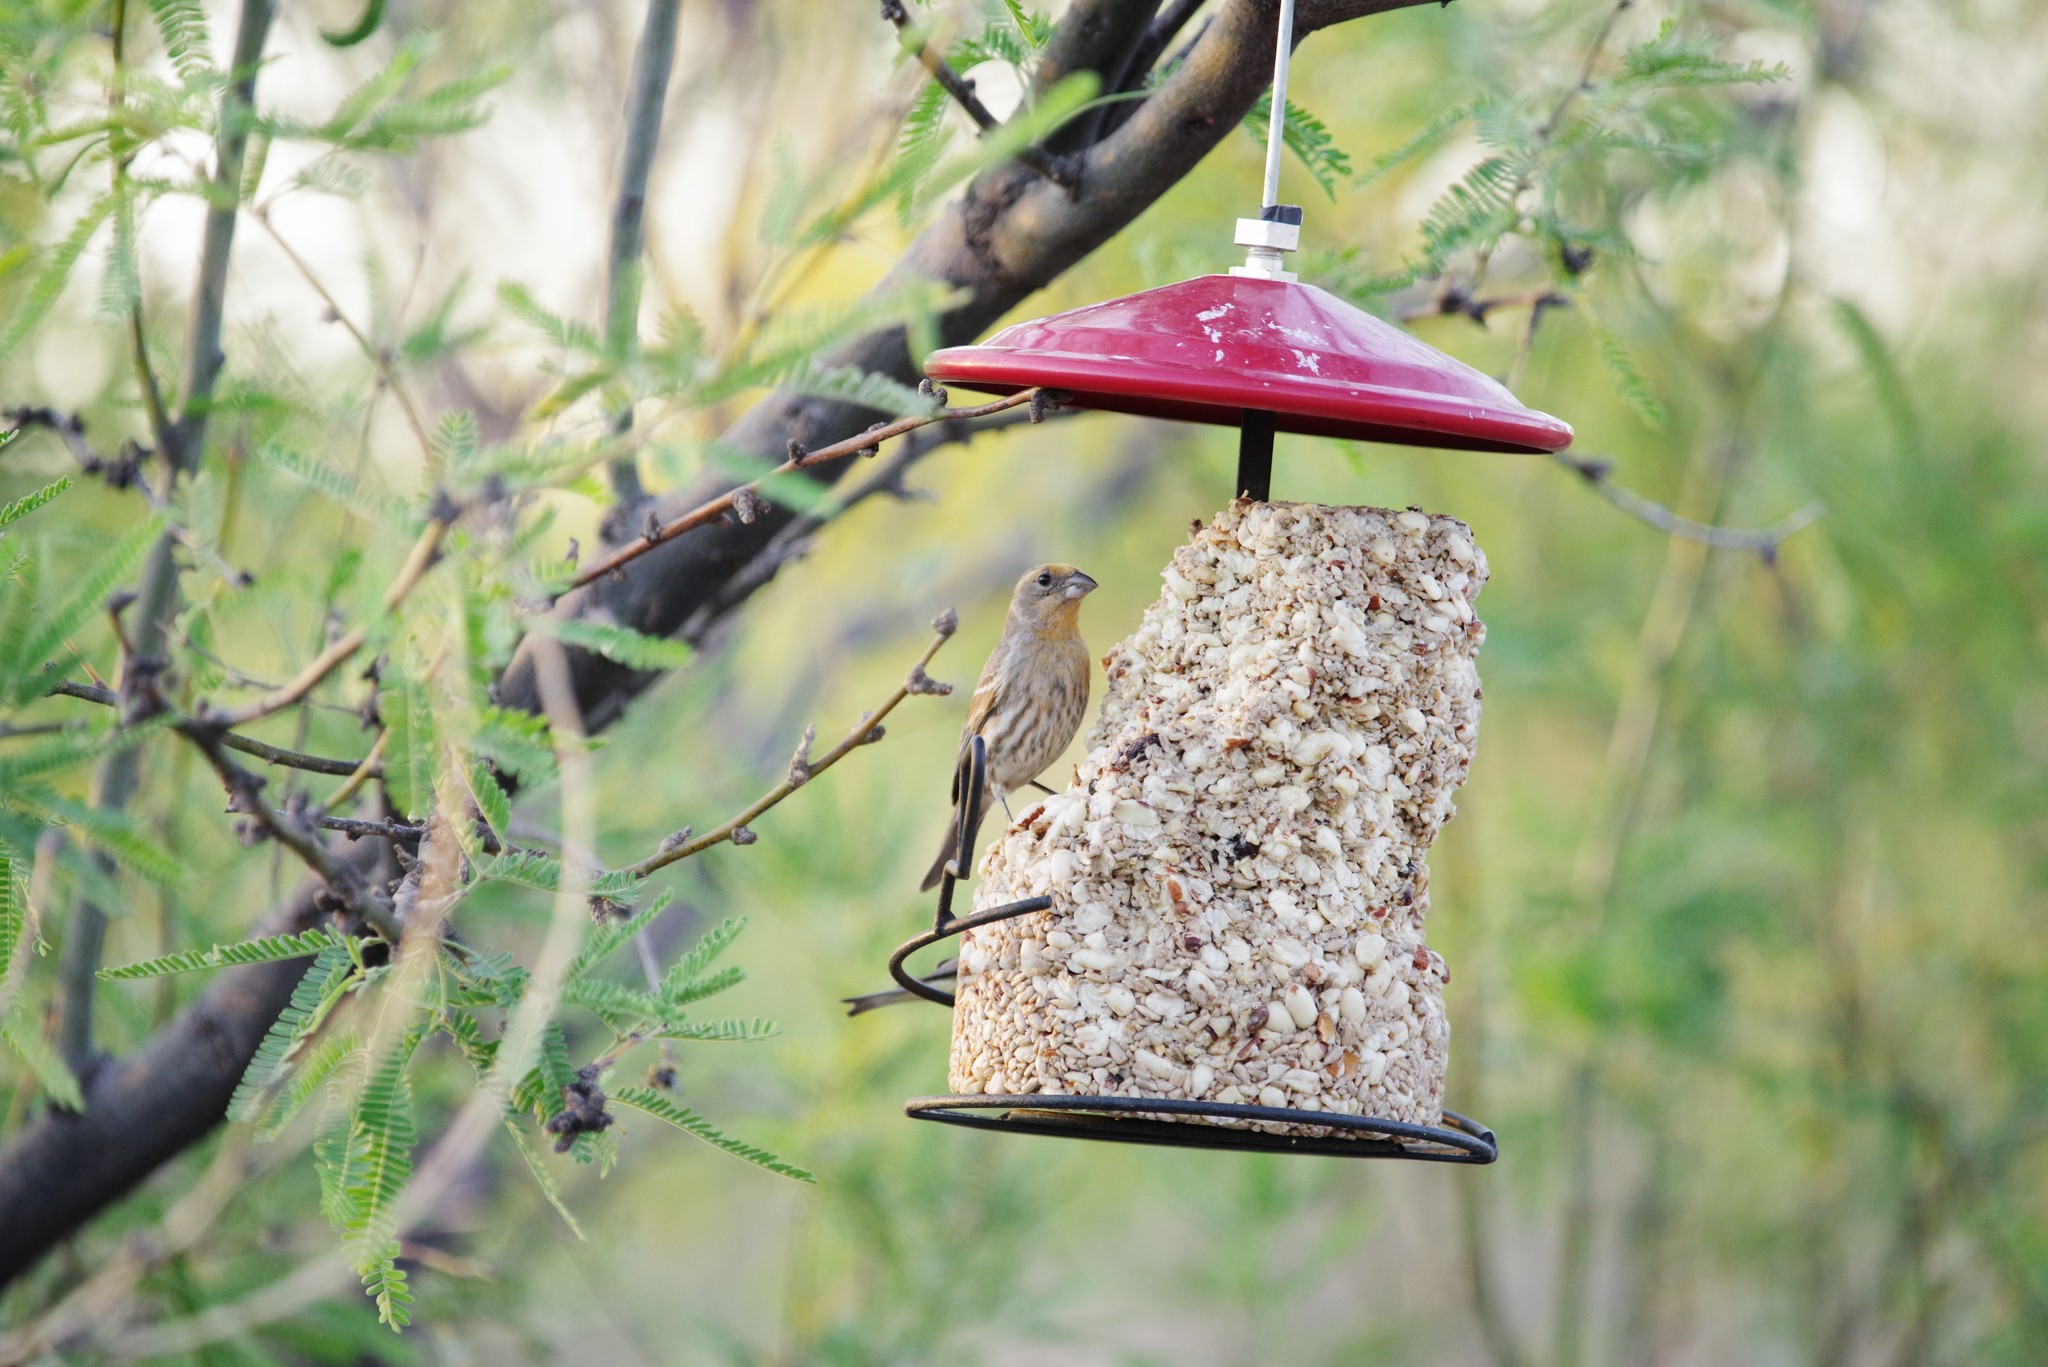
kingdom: Animalia
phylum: Chordata
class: Aves
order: Passeriformes
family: Fringillidae
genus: Haemorhous
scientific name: Haemorhous mexicanus
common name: House finch
